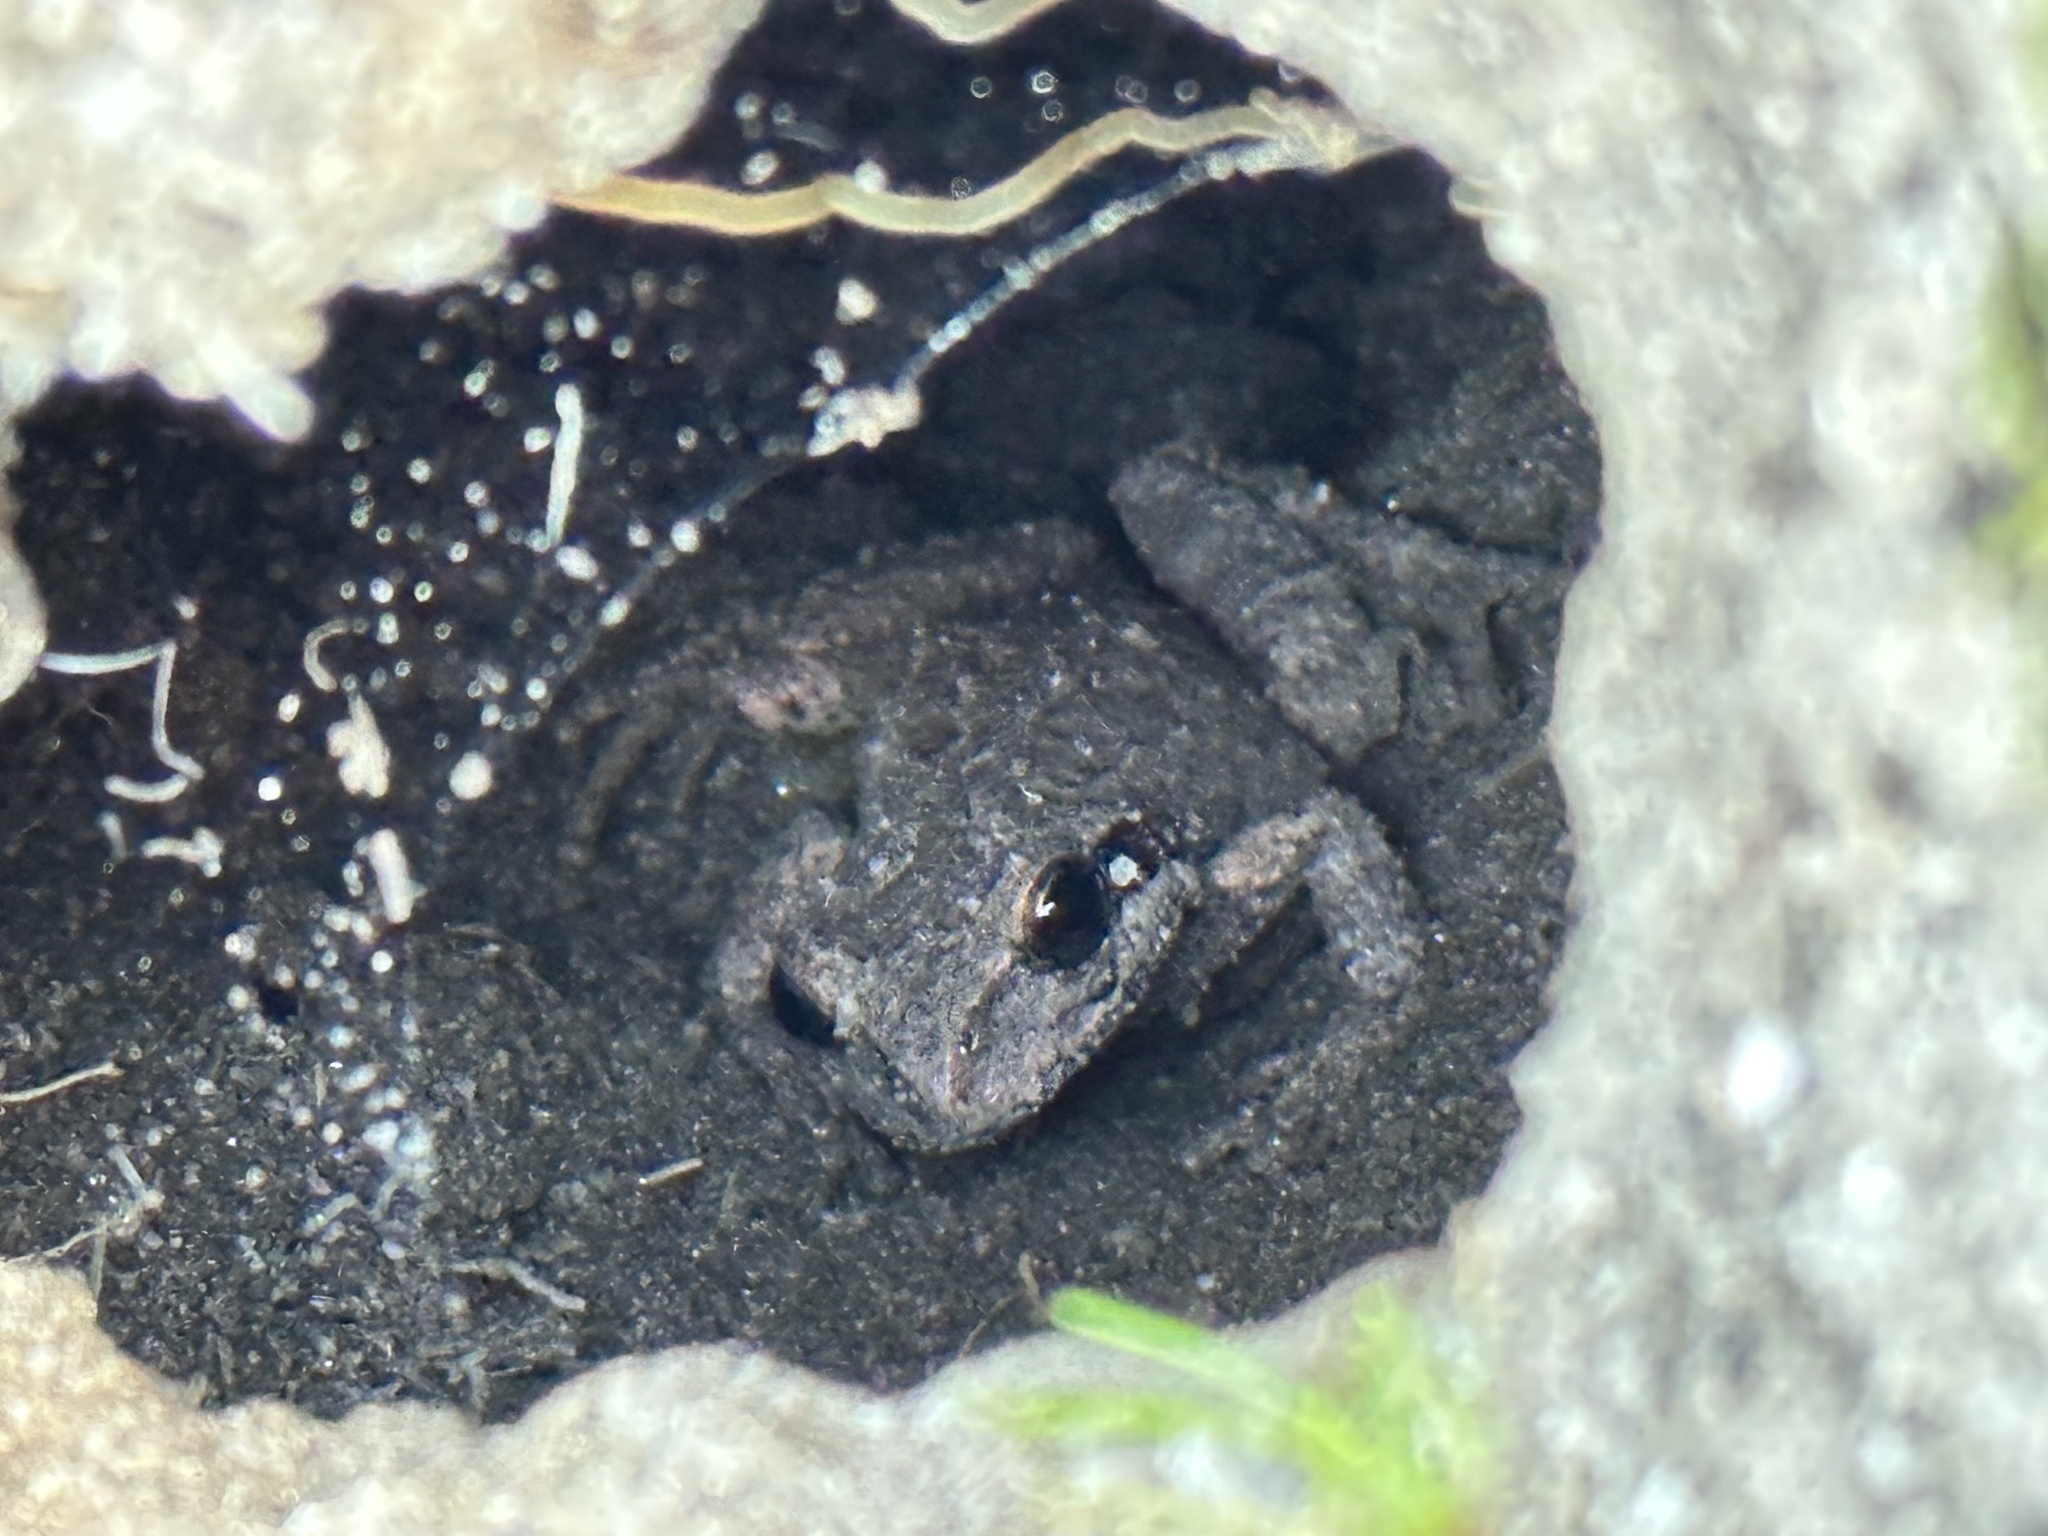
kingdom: Animalia
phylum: Chordata
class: Amphibia
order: Anura
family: Hylidae
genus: Pseudacris
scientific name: Pseudacris regilla
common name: Pacific chorus frog
